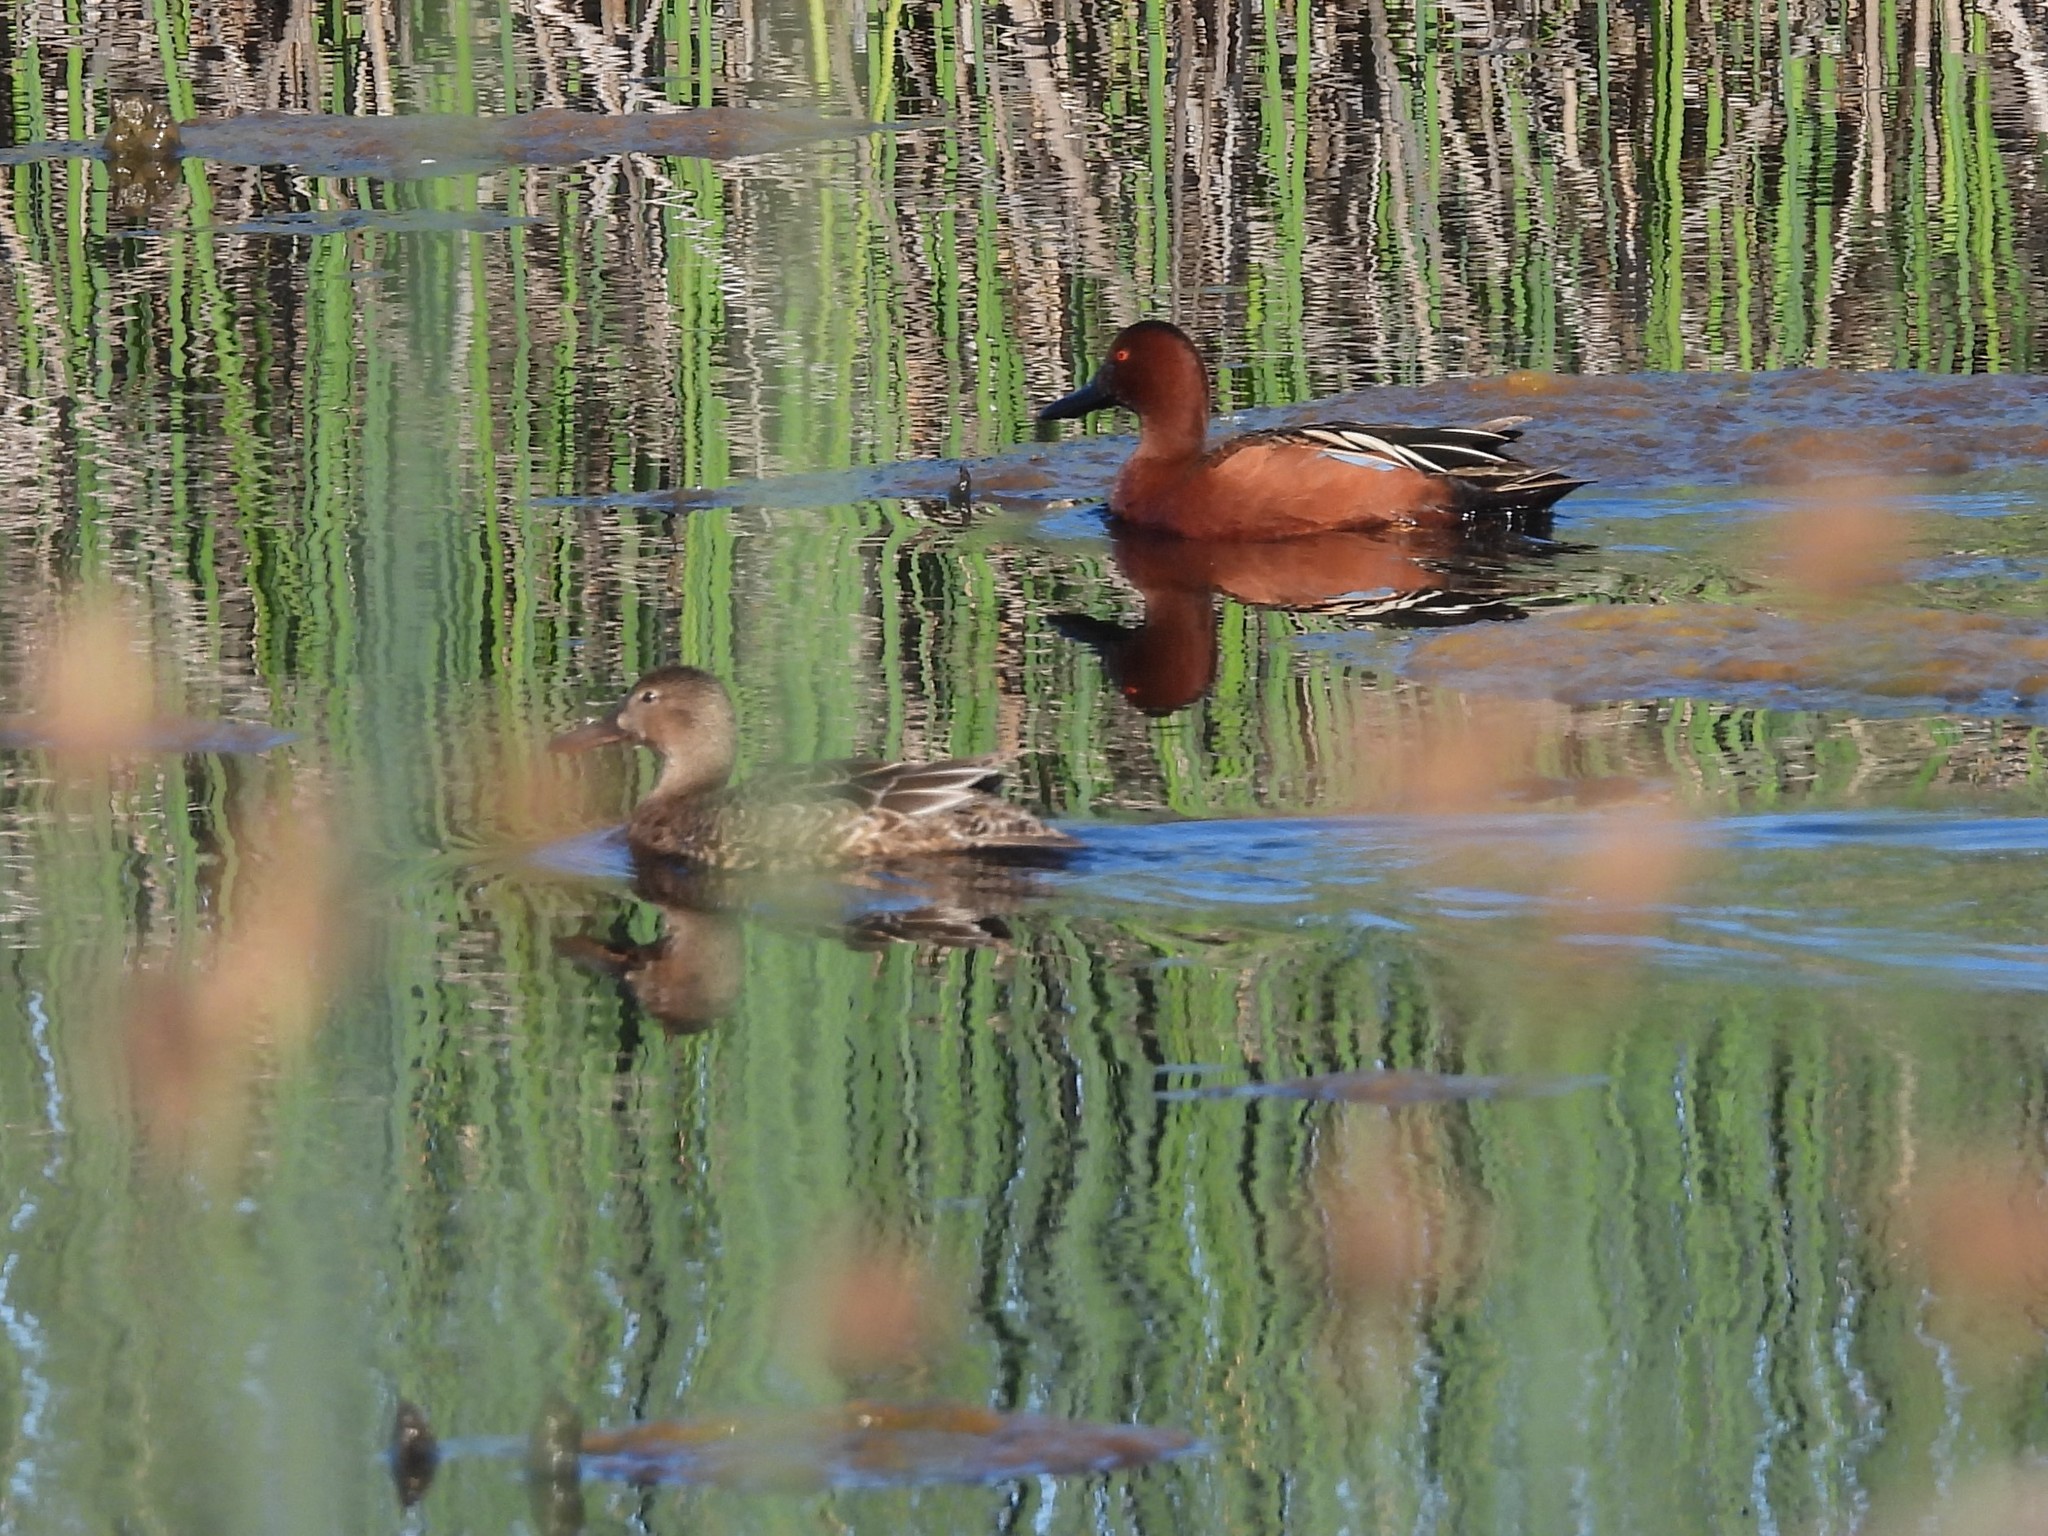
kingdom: Animalia
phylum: Chordata
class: Aves
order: Anseriformes
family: Anatidae
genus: Spatula
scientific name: Spatula cyanoptera
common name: Cinnamon teal
